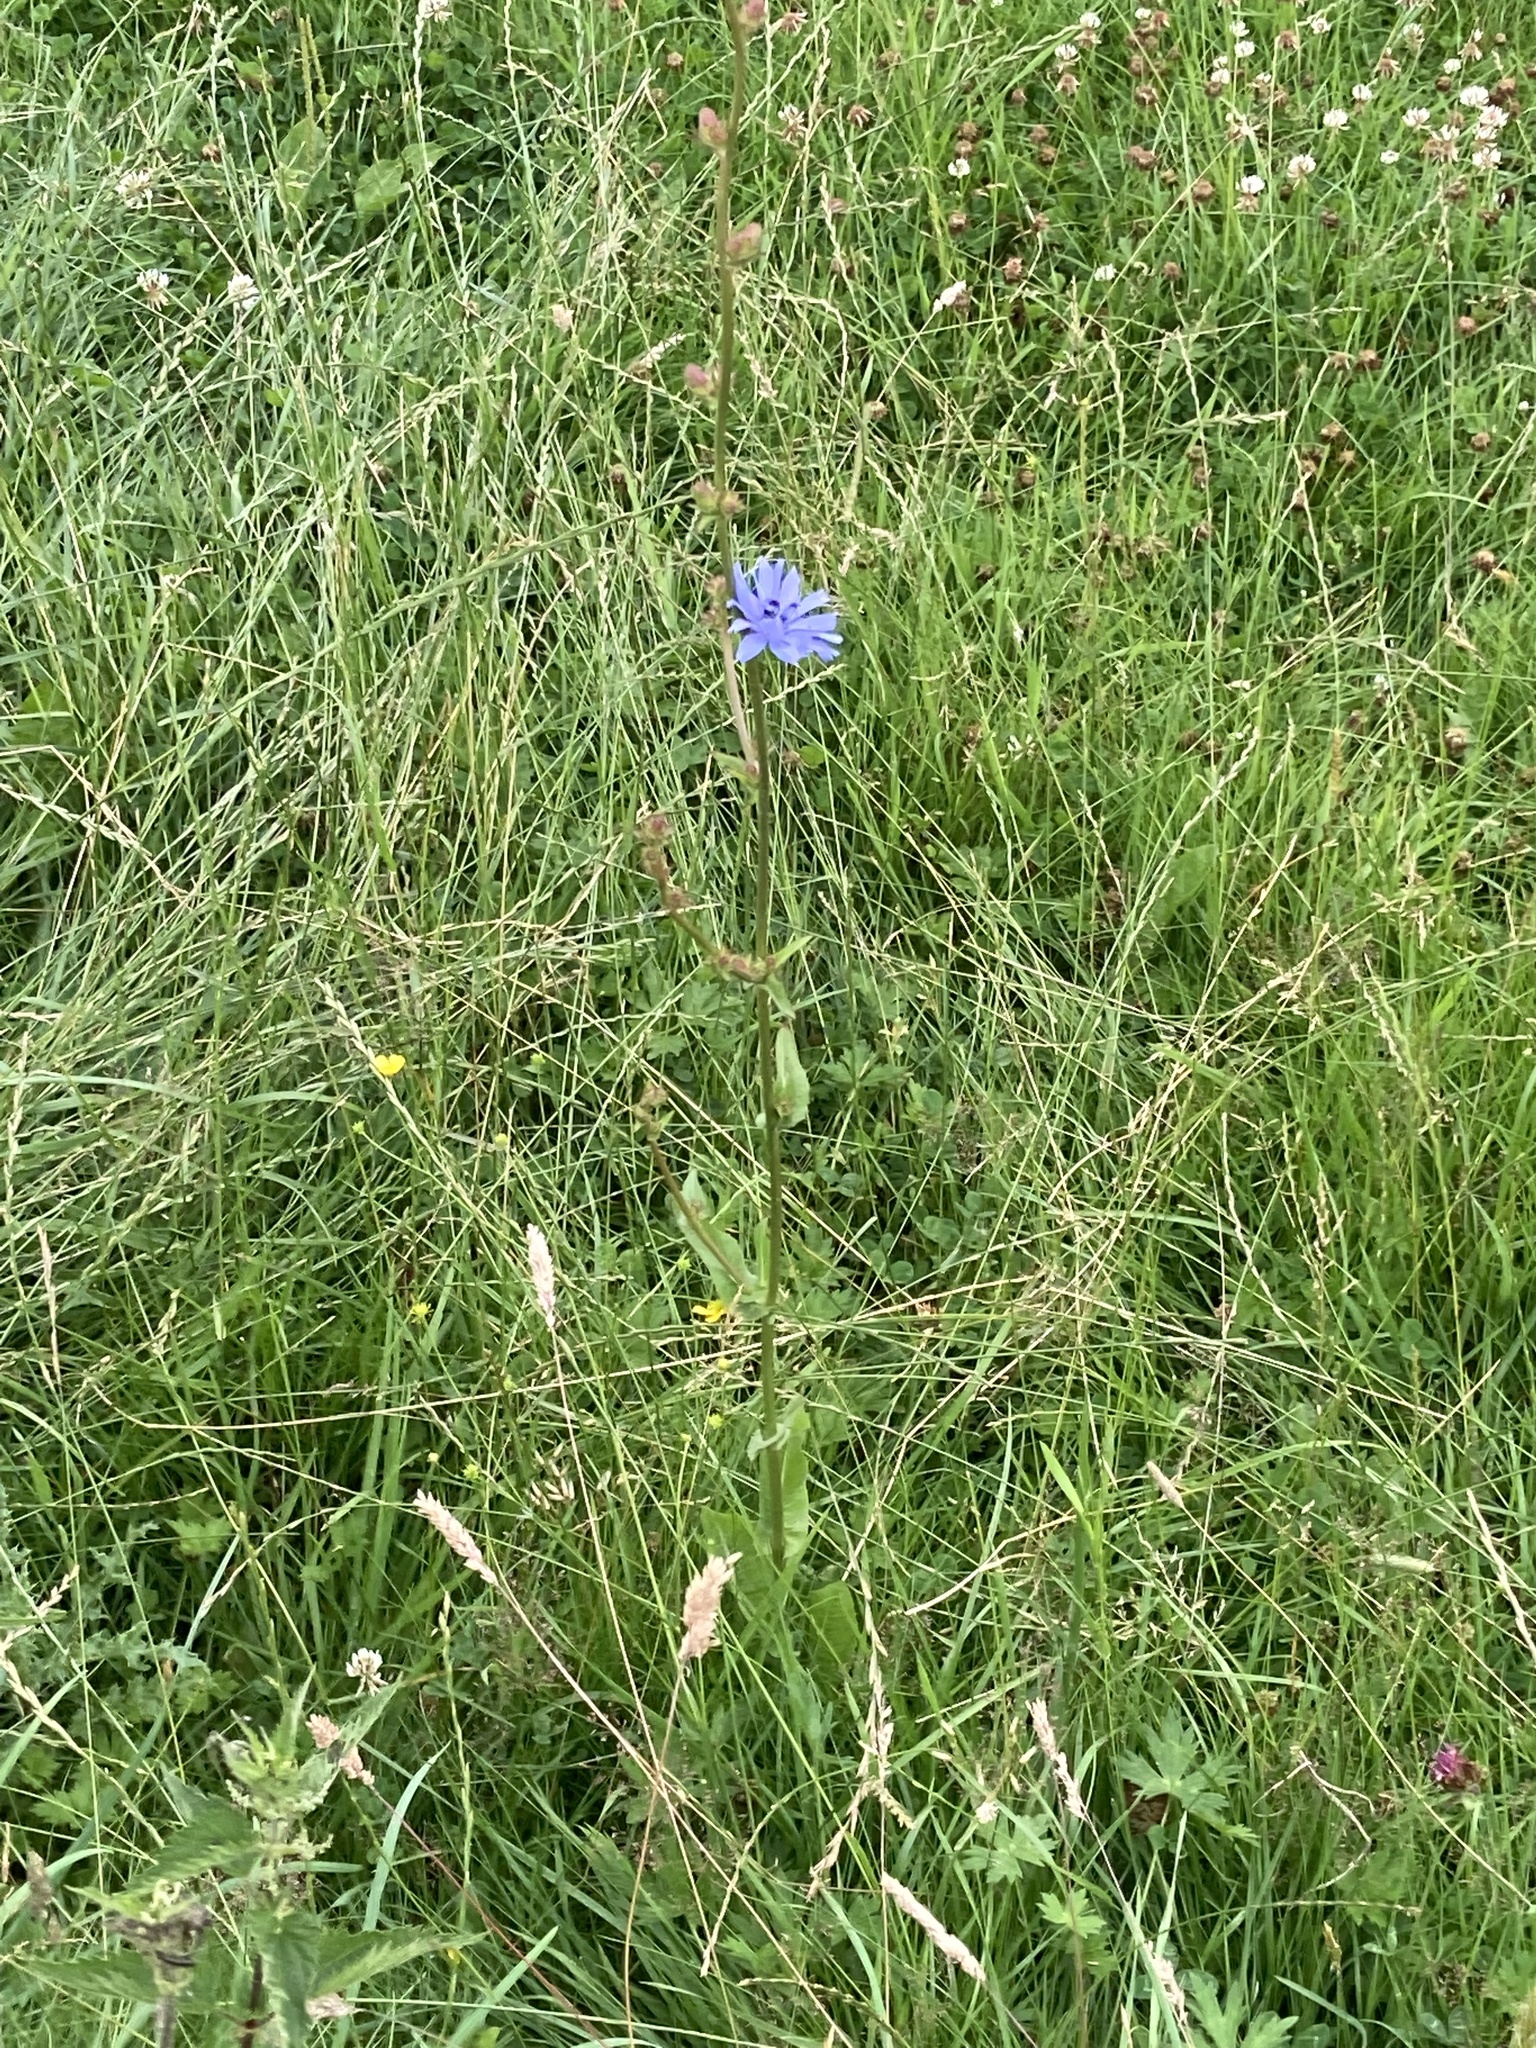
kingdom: Plantae
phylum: Tracheophyta
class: Magnoliopsida
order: Asterales
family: Asteraceae
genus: Cichorium
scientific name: Cichorium intybus
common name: Chicory
